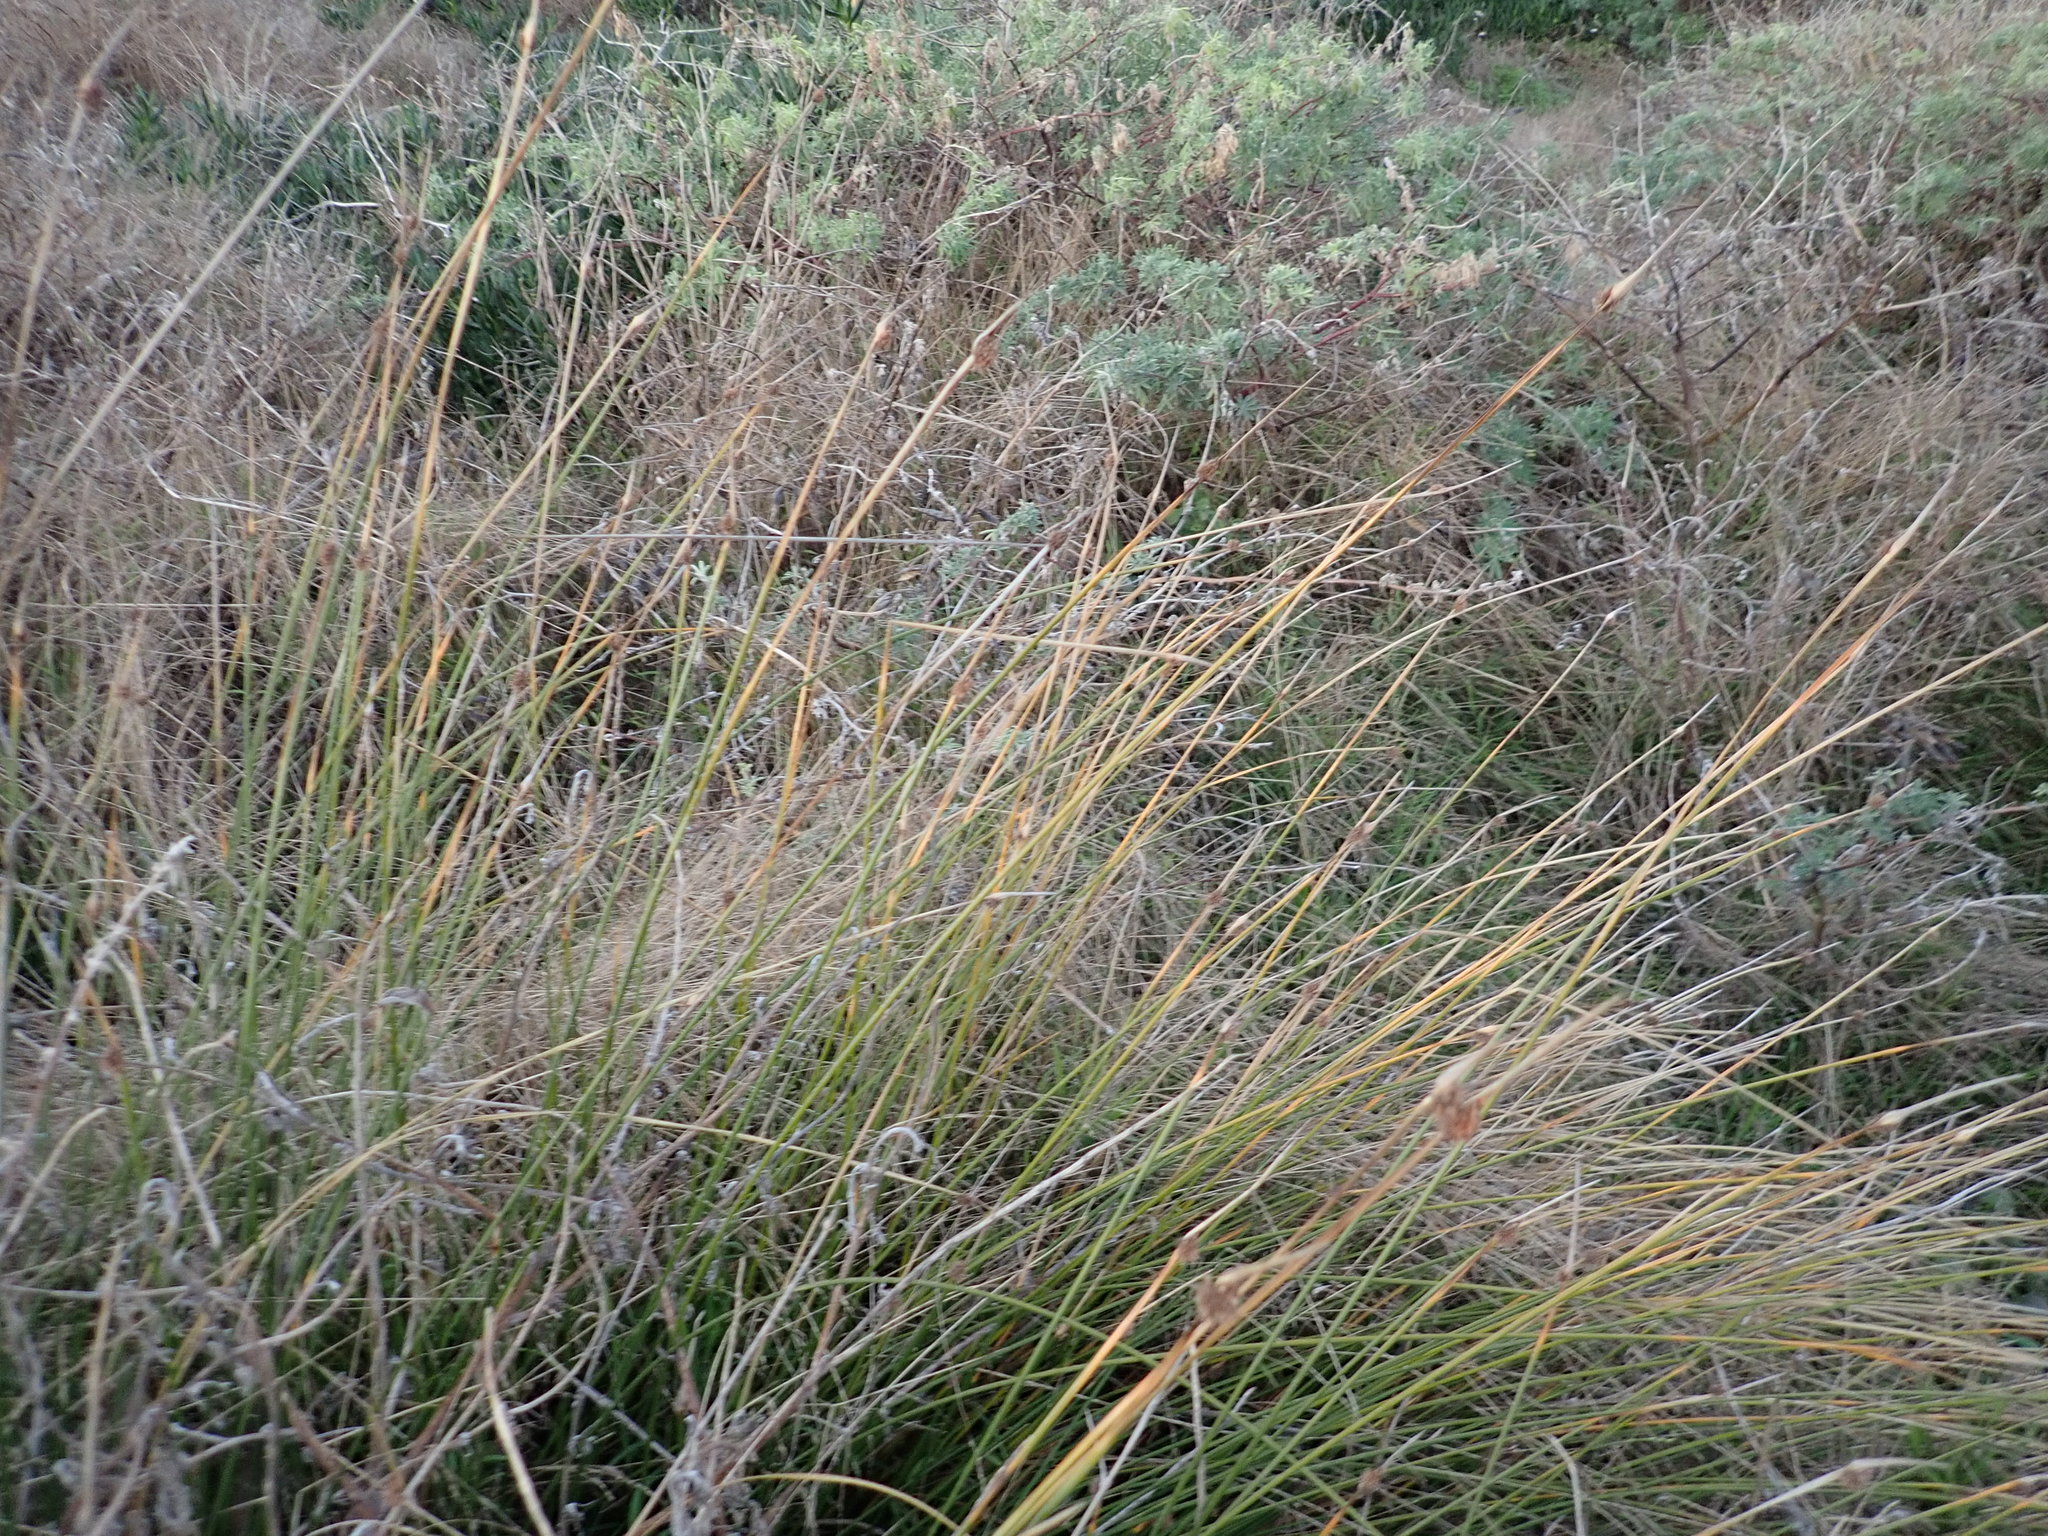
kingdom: Plantae
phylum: Tracheophyta
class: Liliopsida
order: Poales
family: Cyperaceae
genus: Ficinia
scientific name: Ficinia nodosa
